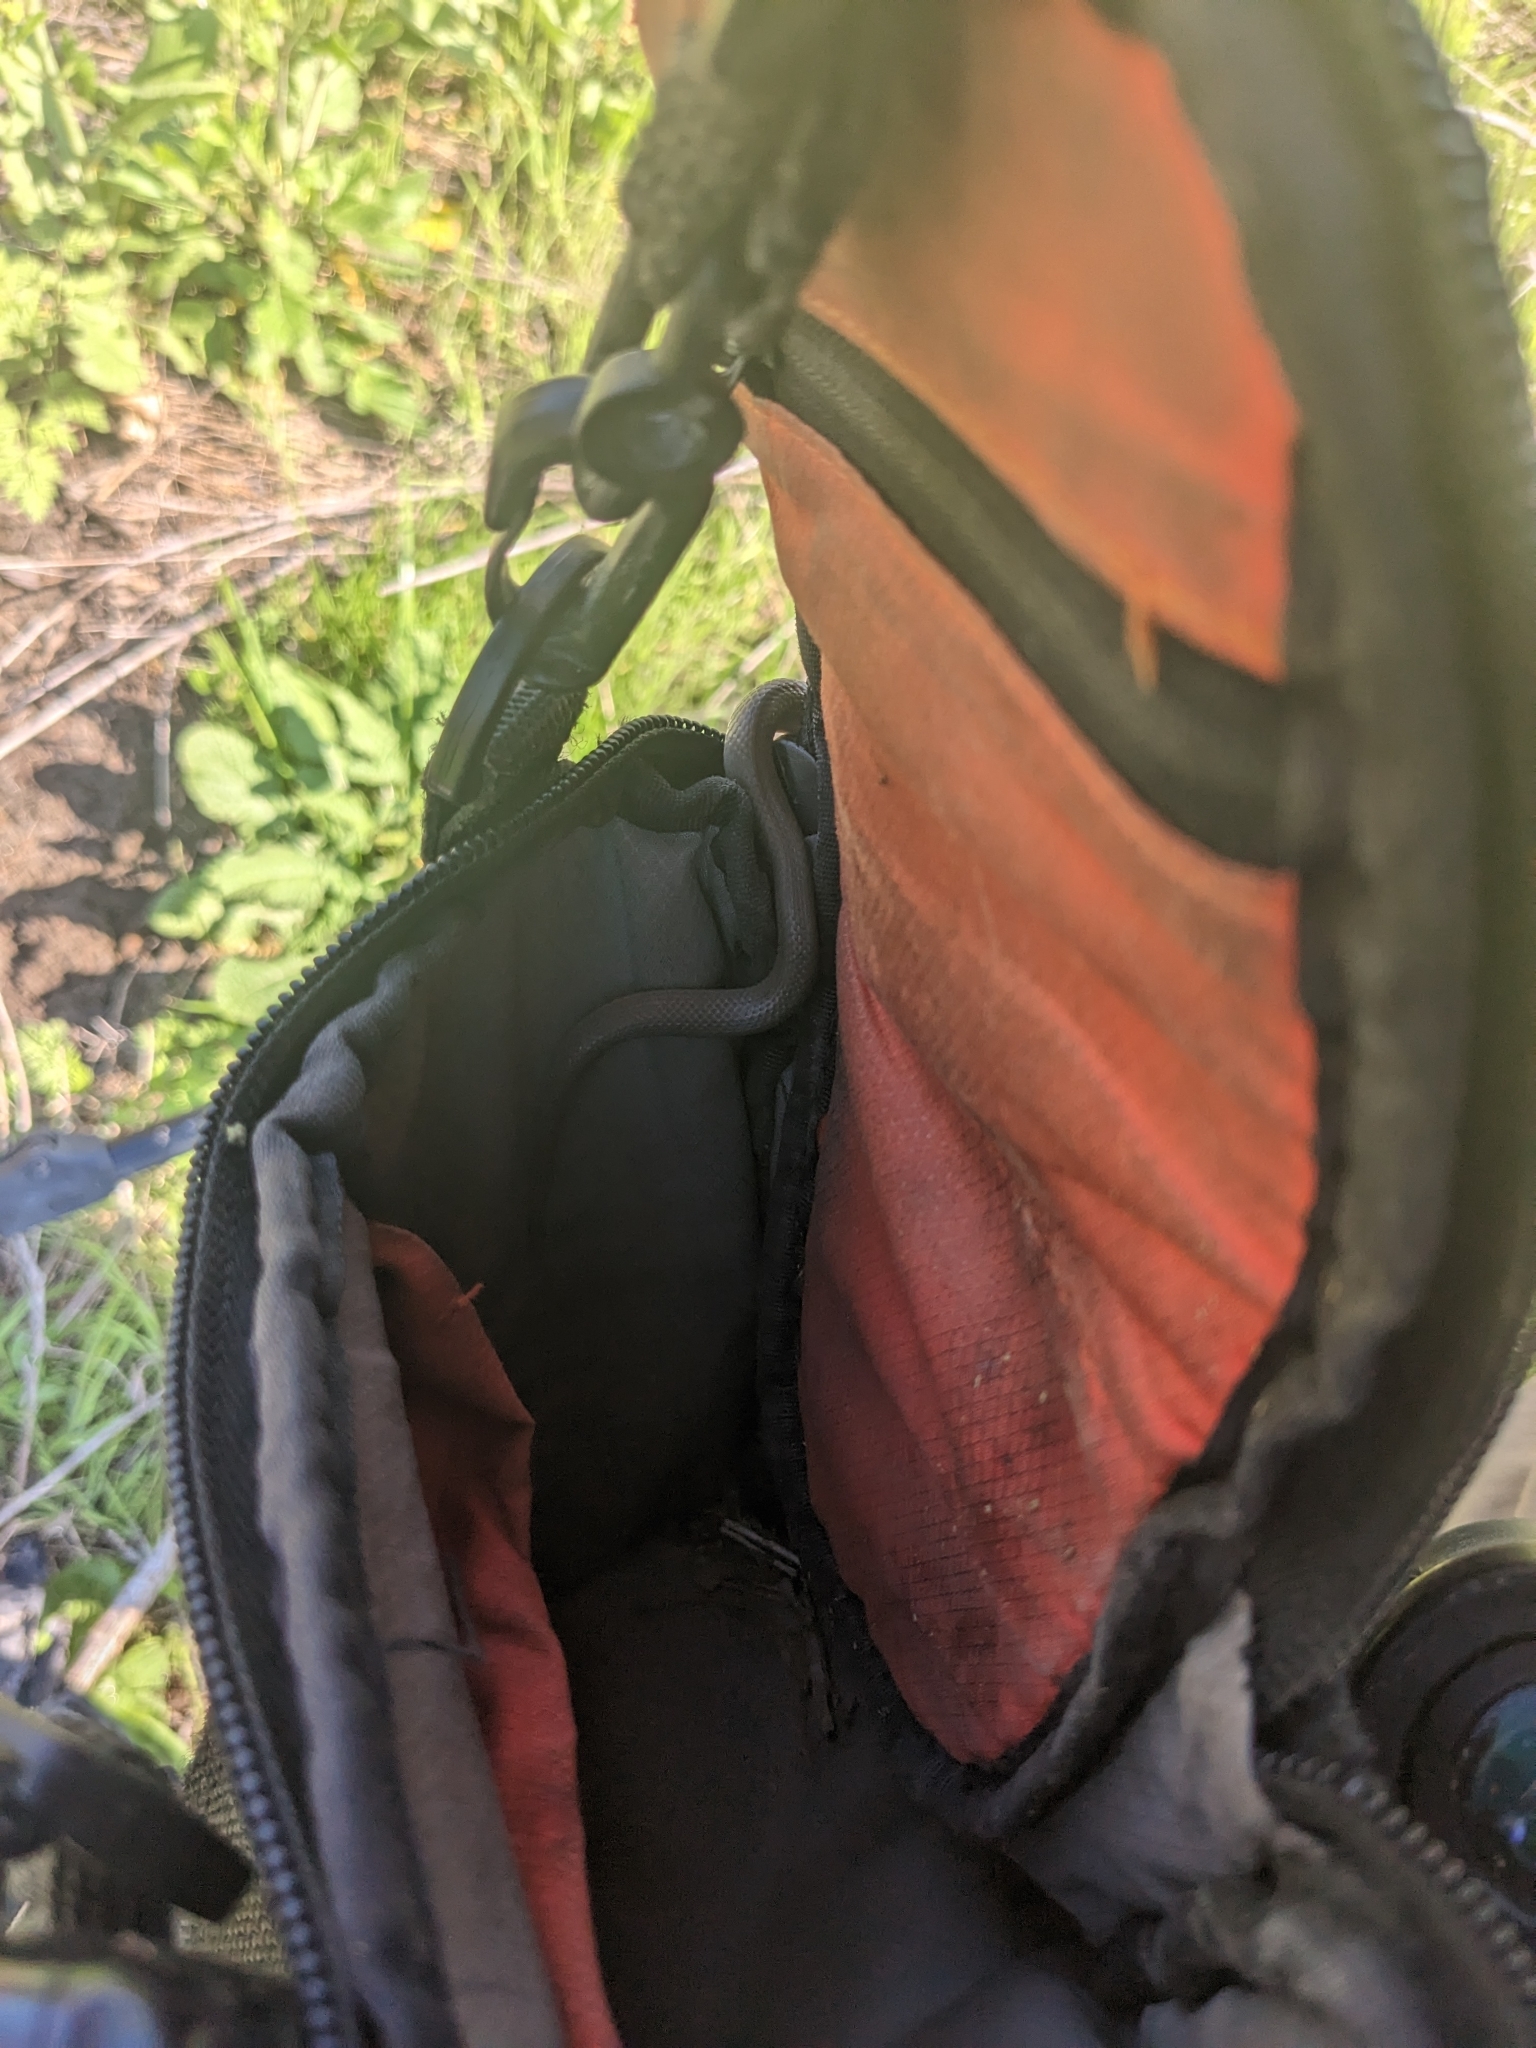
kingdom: Animalia
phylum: Chordata
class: Squamata
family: Colubridae
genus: Haldea
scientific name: Haldea striatula
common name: Rough earth snake
